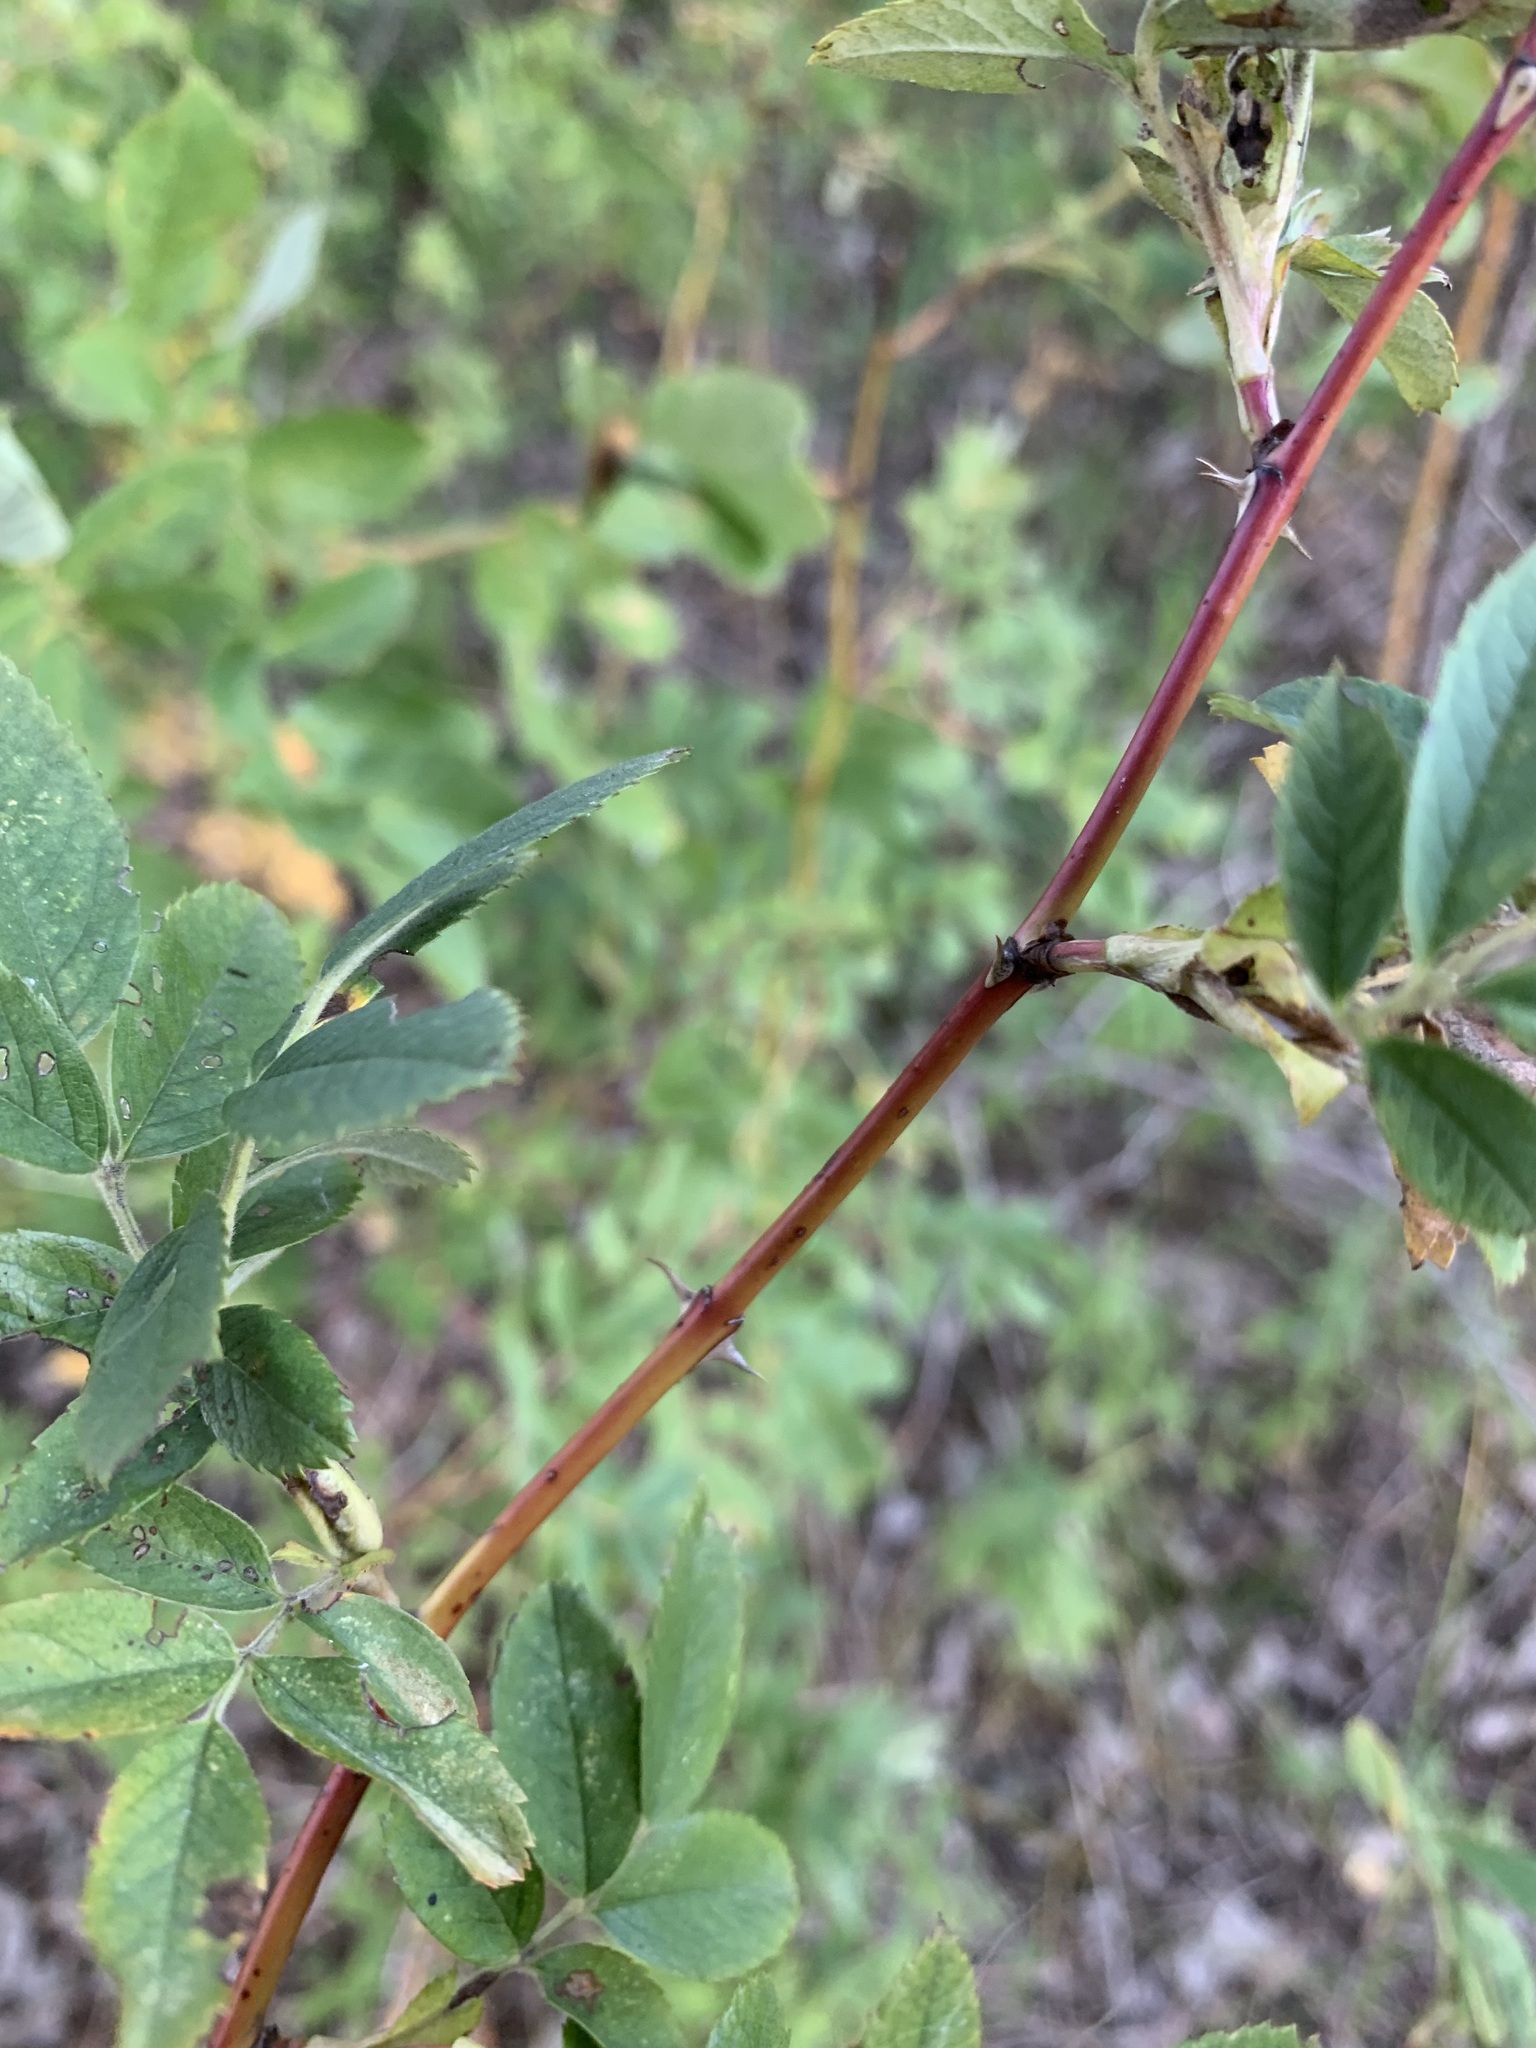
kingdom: Plantae
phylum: Tracheophyta
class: Magnoliopsida
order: Rosales
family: Rosaceae
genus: Rosa
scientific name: Rosa majalis
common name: Cinnamon rose
